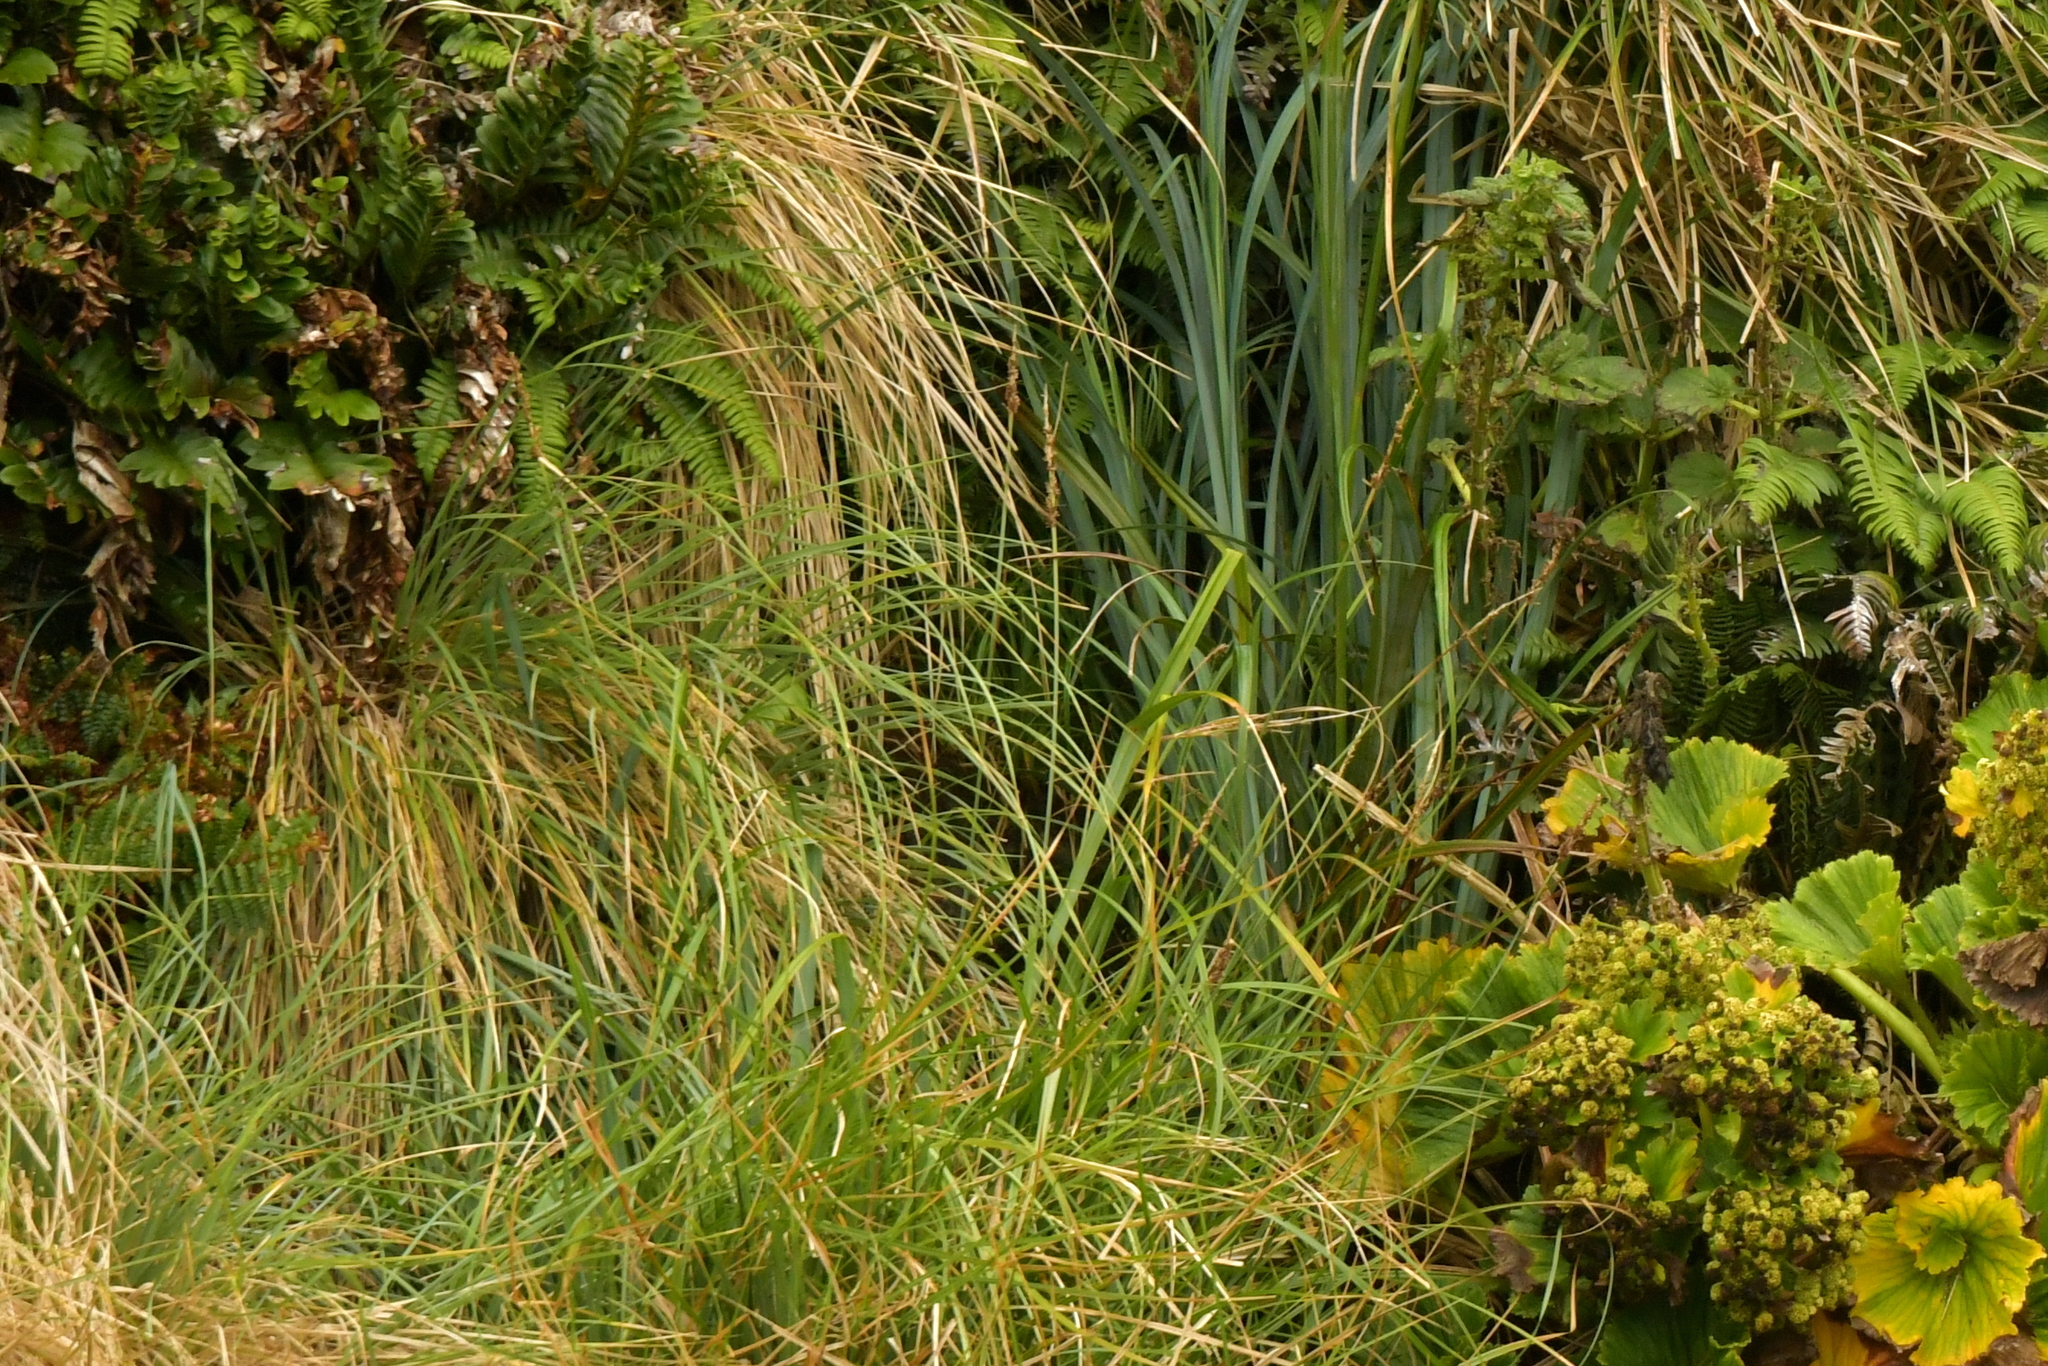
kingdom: Plantae
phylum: Tracheophyta
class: Liliopsida
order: Poales
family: Cyperaceae
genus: Carex
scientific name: Carex appressa
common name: Tussock sedge
